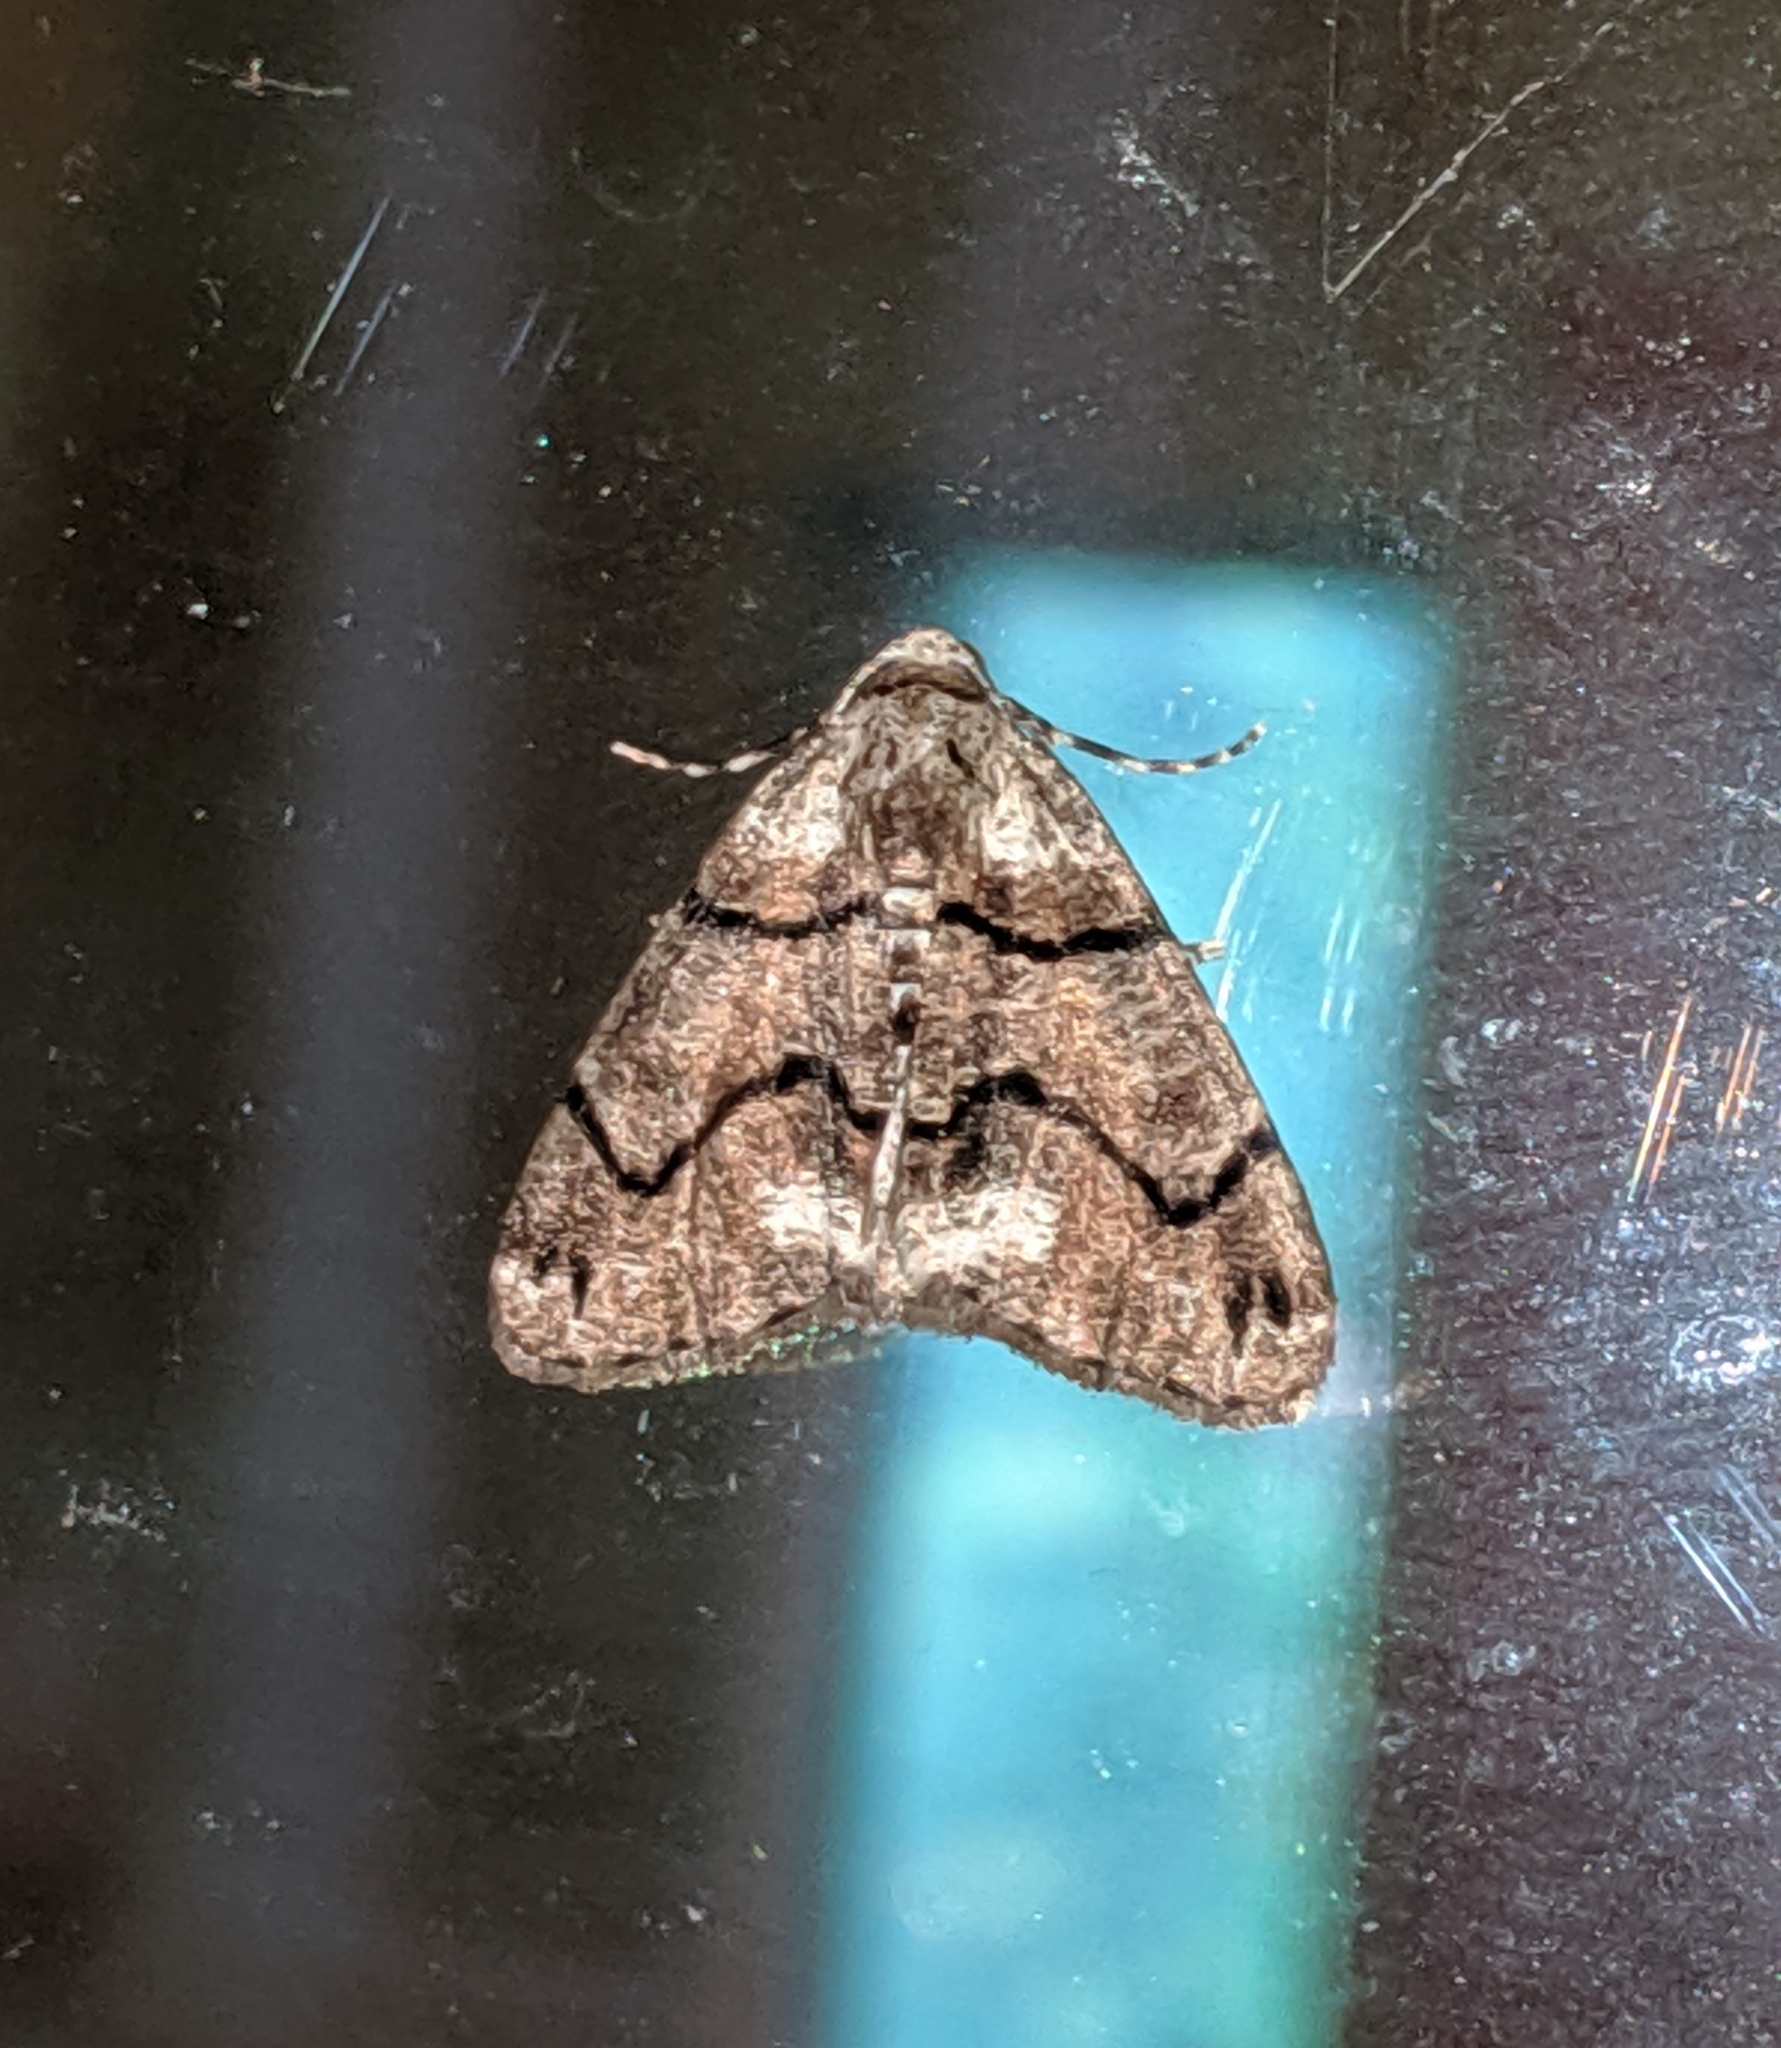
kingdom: Animalia
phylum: Arthropoda
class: Insecta
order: Lepidoptera
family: Geometridae
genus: Gabriola
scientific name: Gabriola dyari
